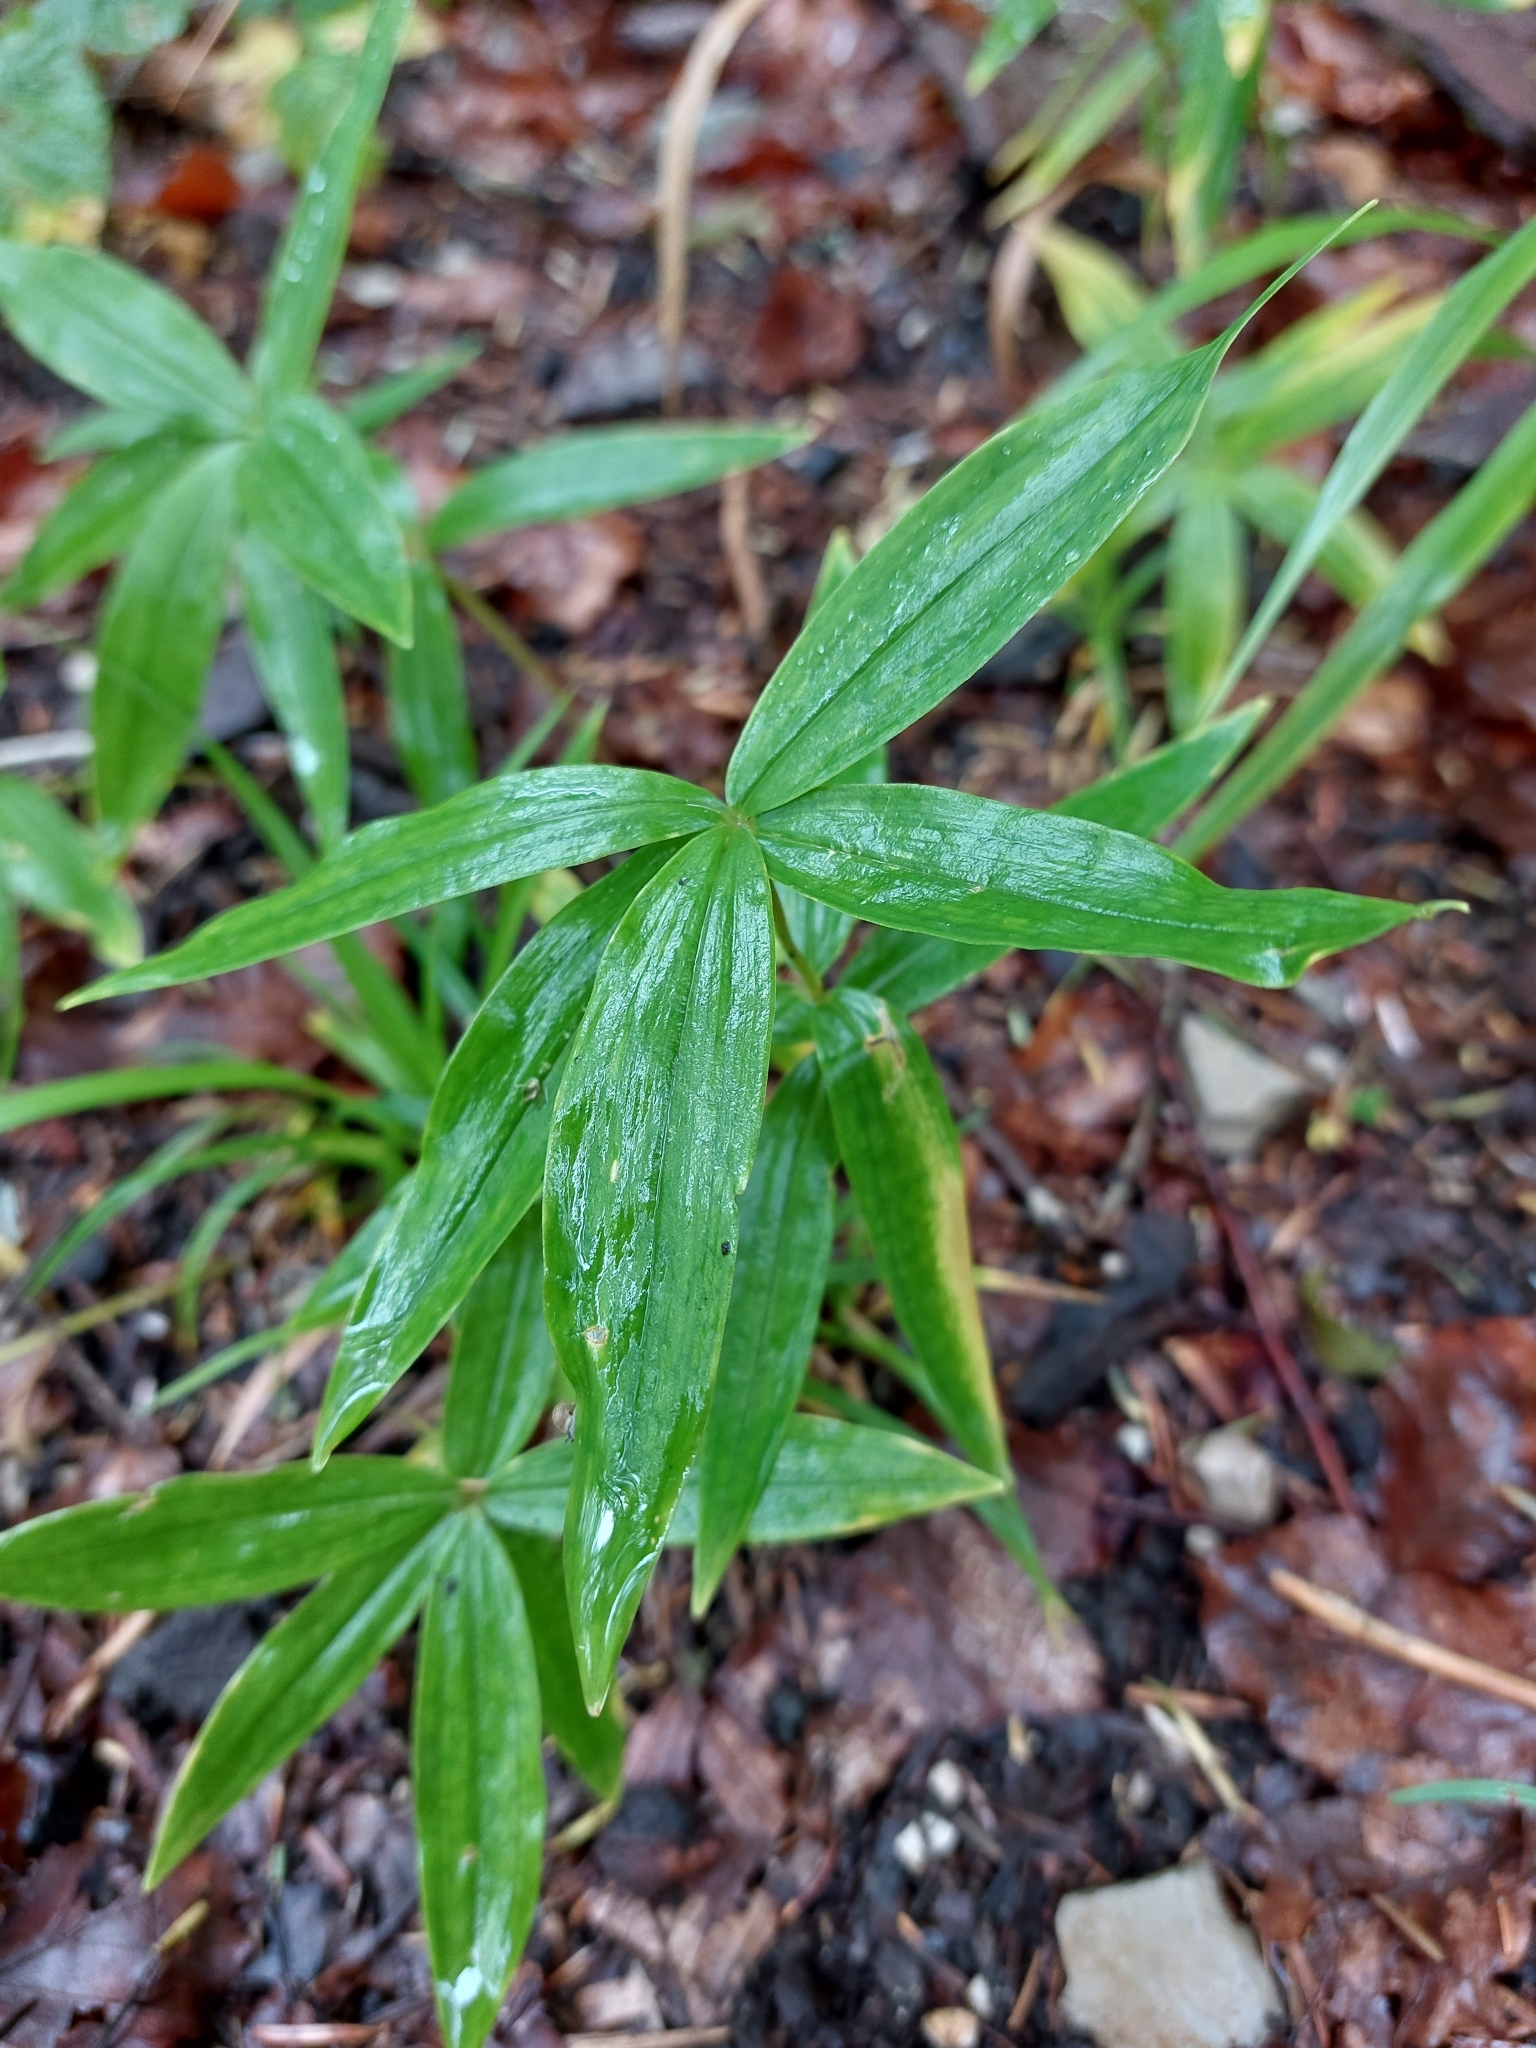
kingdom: Plantae
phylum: Tracheophyta
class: Liliopsida
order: Asparagales
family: Asparagaceae
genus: Polygonatum
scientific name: Polygonatum verticillatum
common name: Whorled solomon's-seal
